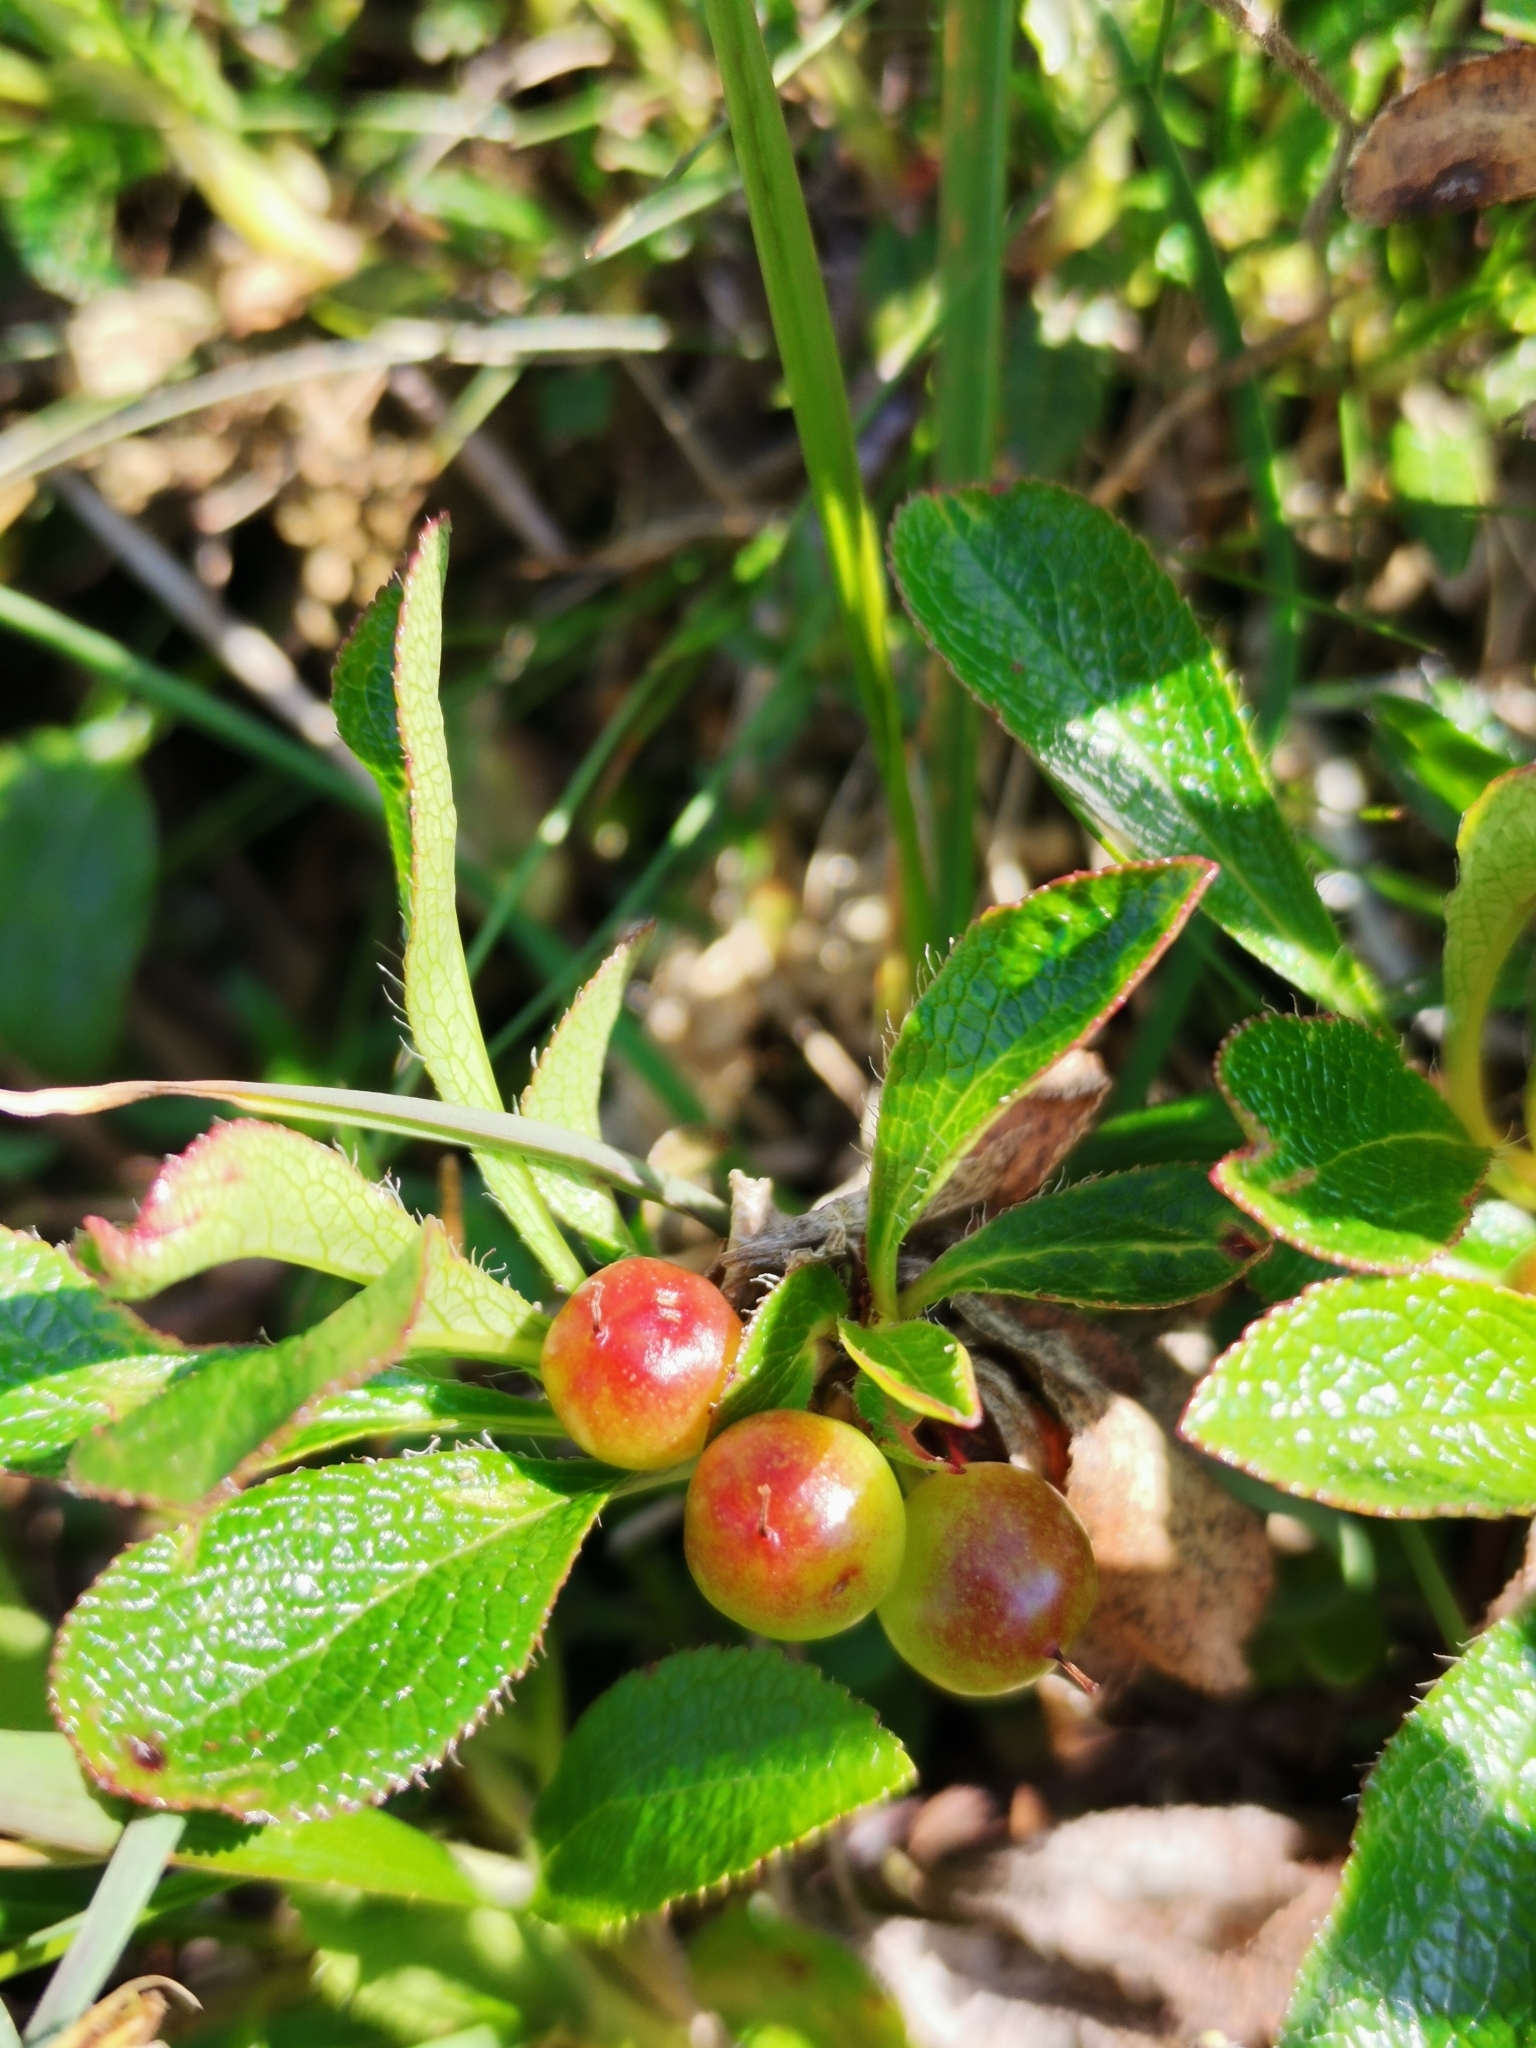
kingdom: Plantae
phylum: Tracheophyta
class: Magnoliopsida
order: Ericales
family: Ericaceae
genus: Arctostaphylos
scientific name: Arctostaphylos alpinus
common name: Alpine bearberry
